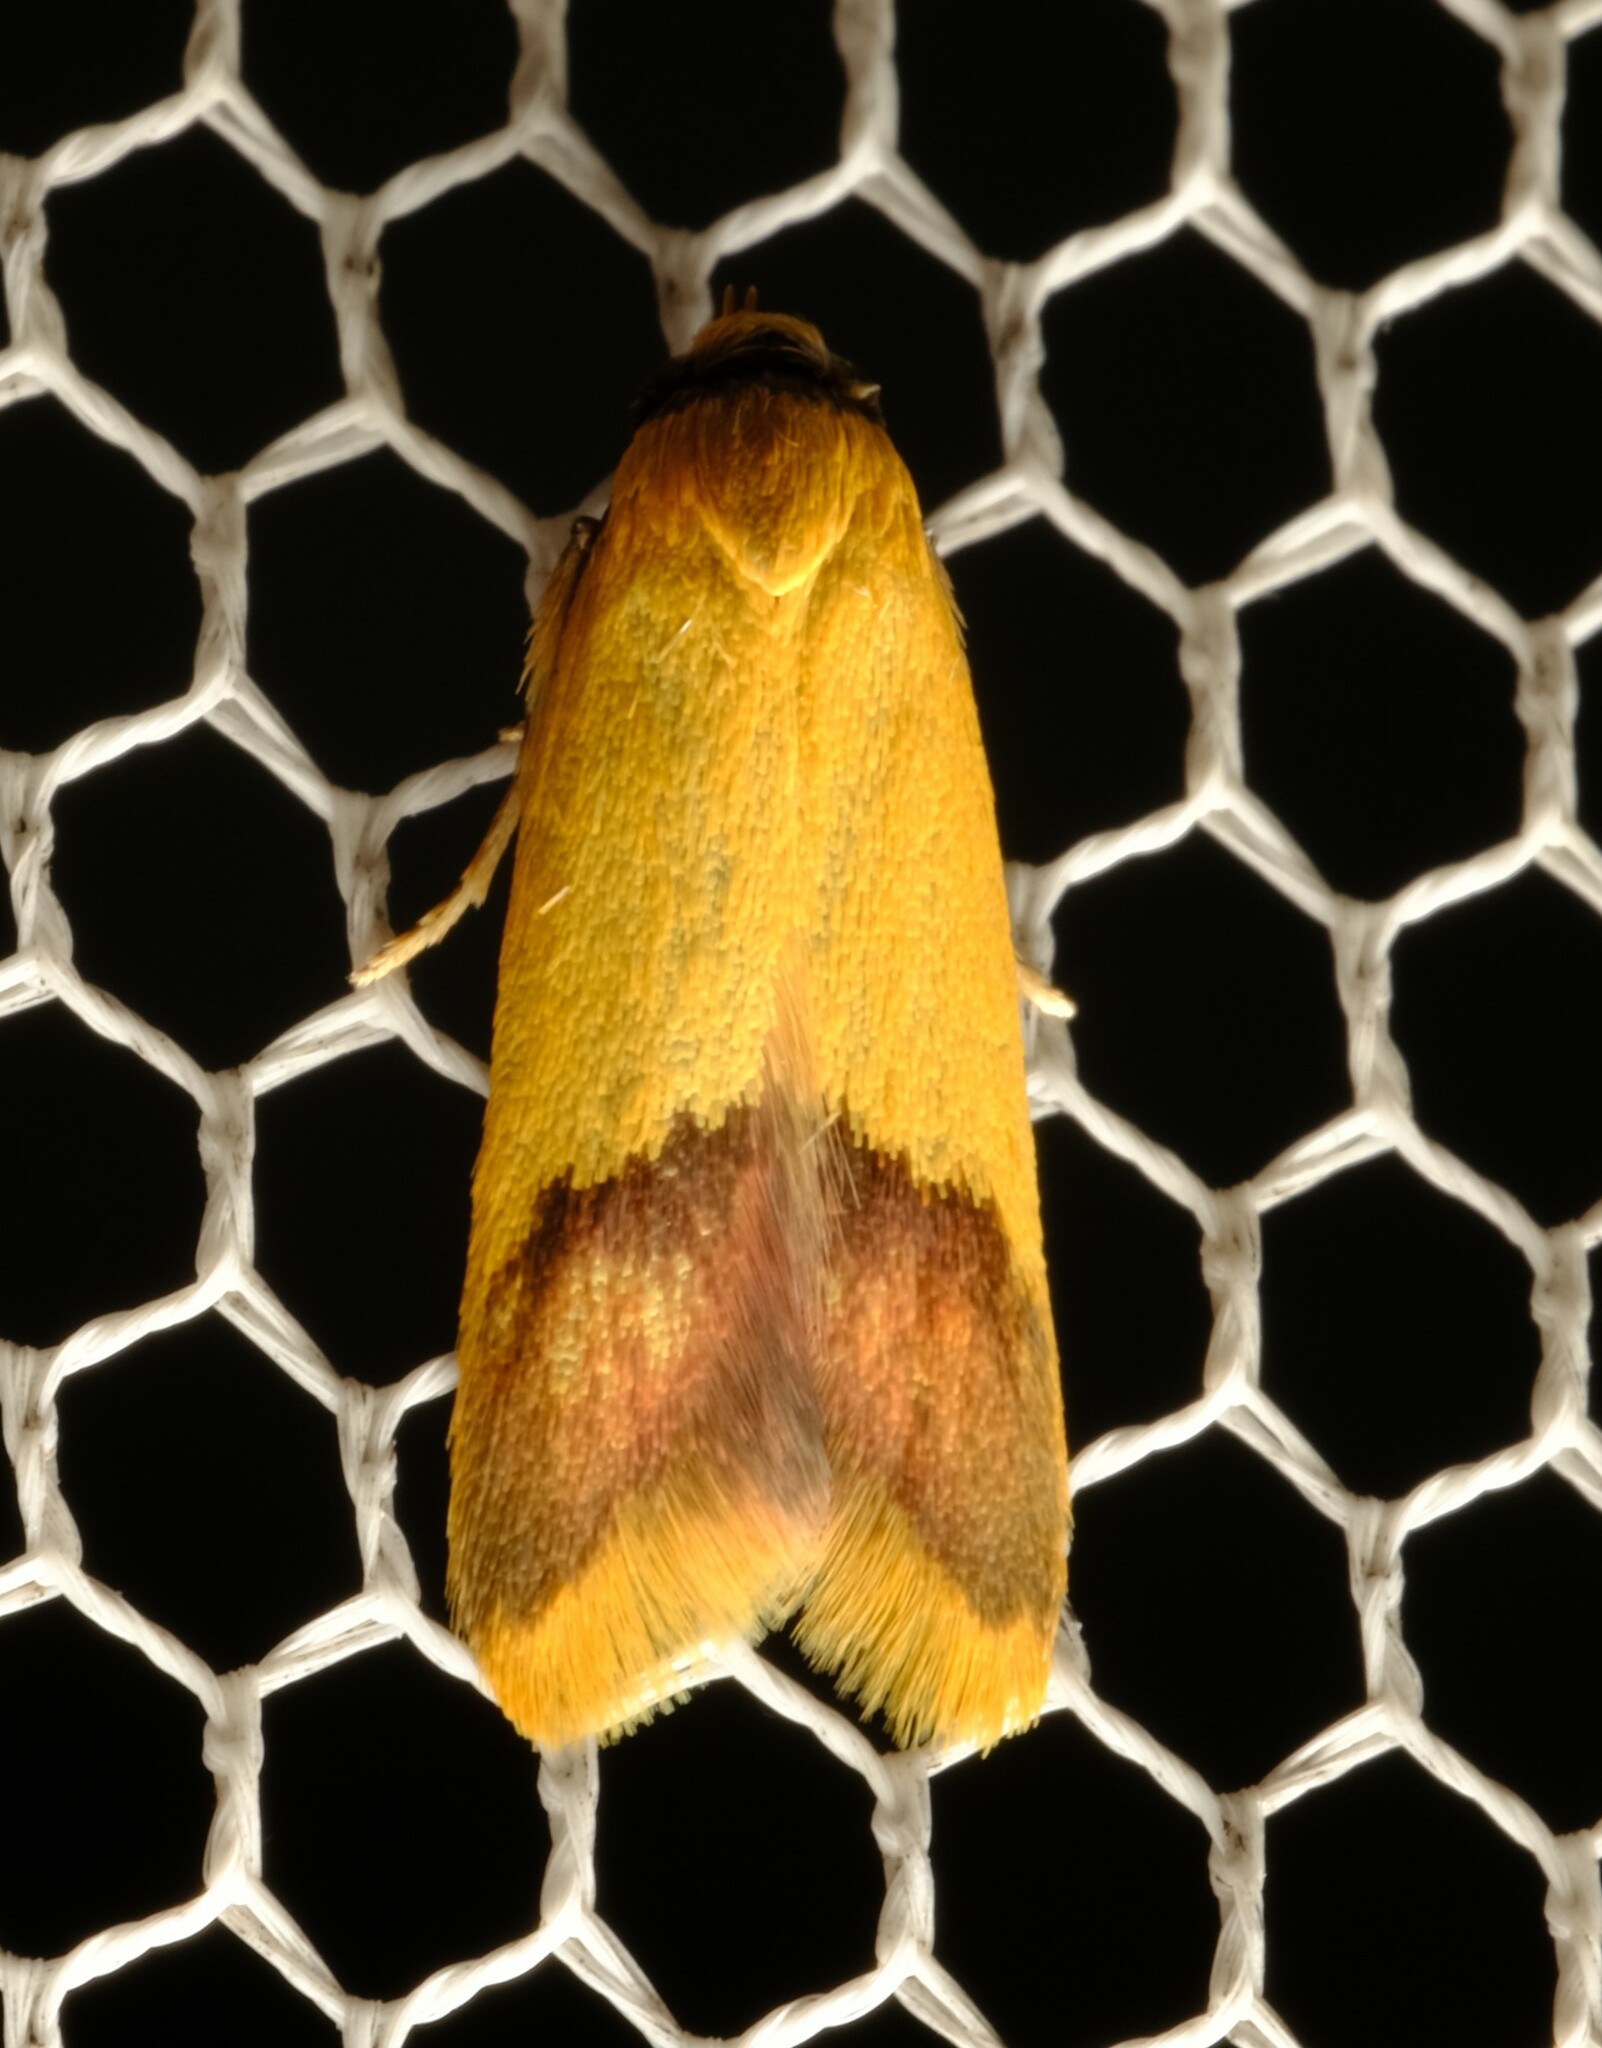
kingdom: Animalia
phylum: Arthropoda
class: Insecta
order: Lepidoptera
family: Oecophoridae
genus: Tachystola
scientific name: Tachystola stenoptera
